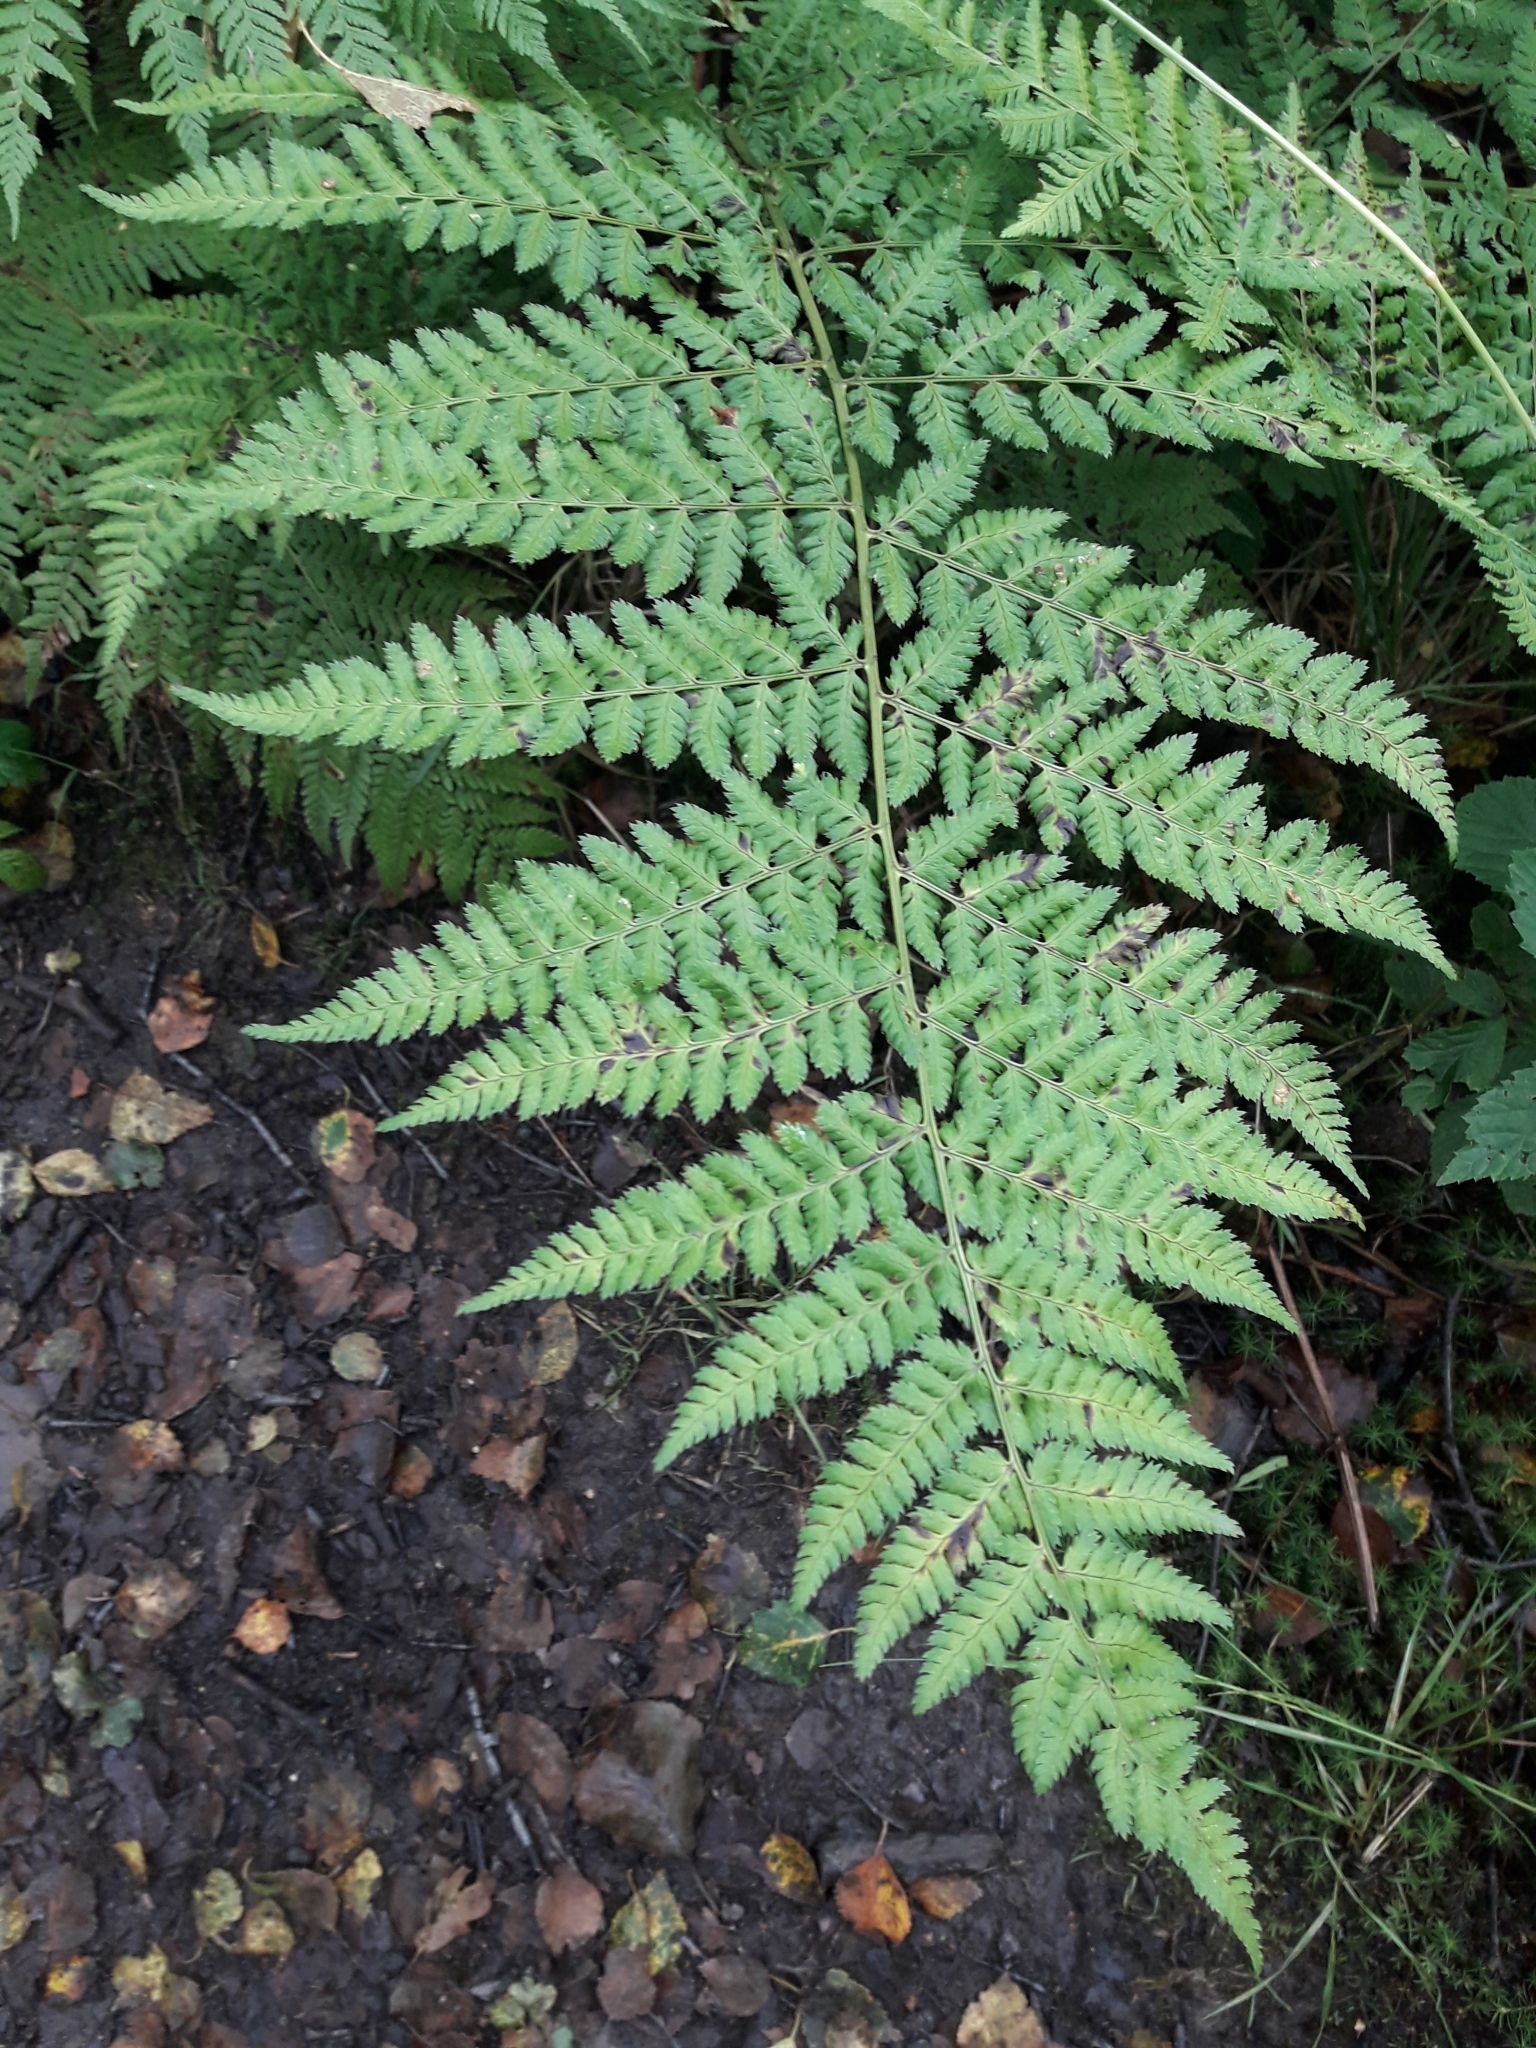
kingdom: Plantae
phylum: Tracheophyta
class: Polypodiopsida
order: Polypodiales
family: Dryopteridaceae
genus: Dryopteris
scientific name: Dryopteris dilatata
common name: Broad buckler-fern
